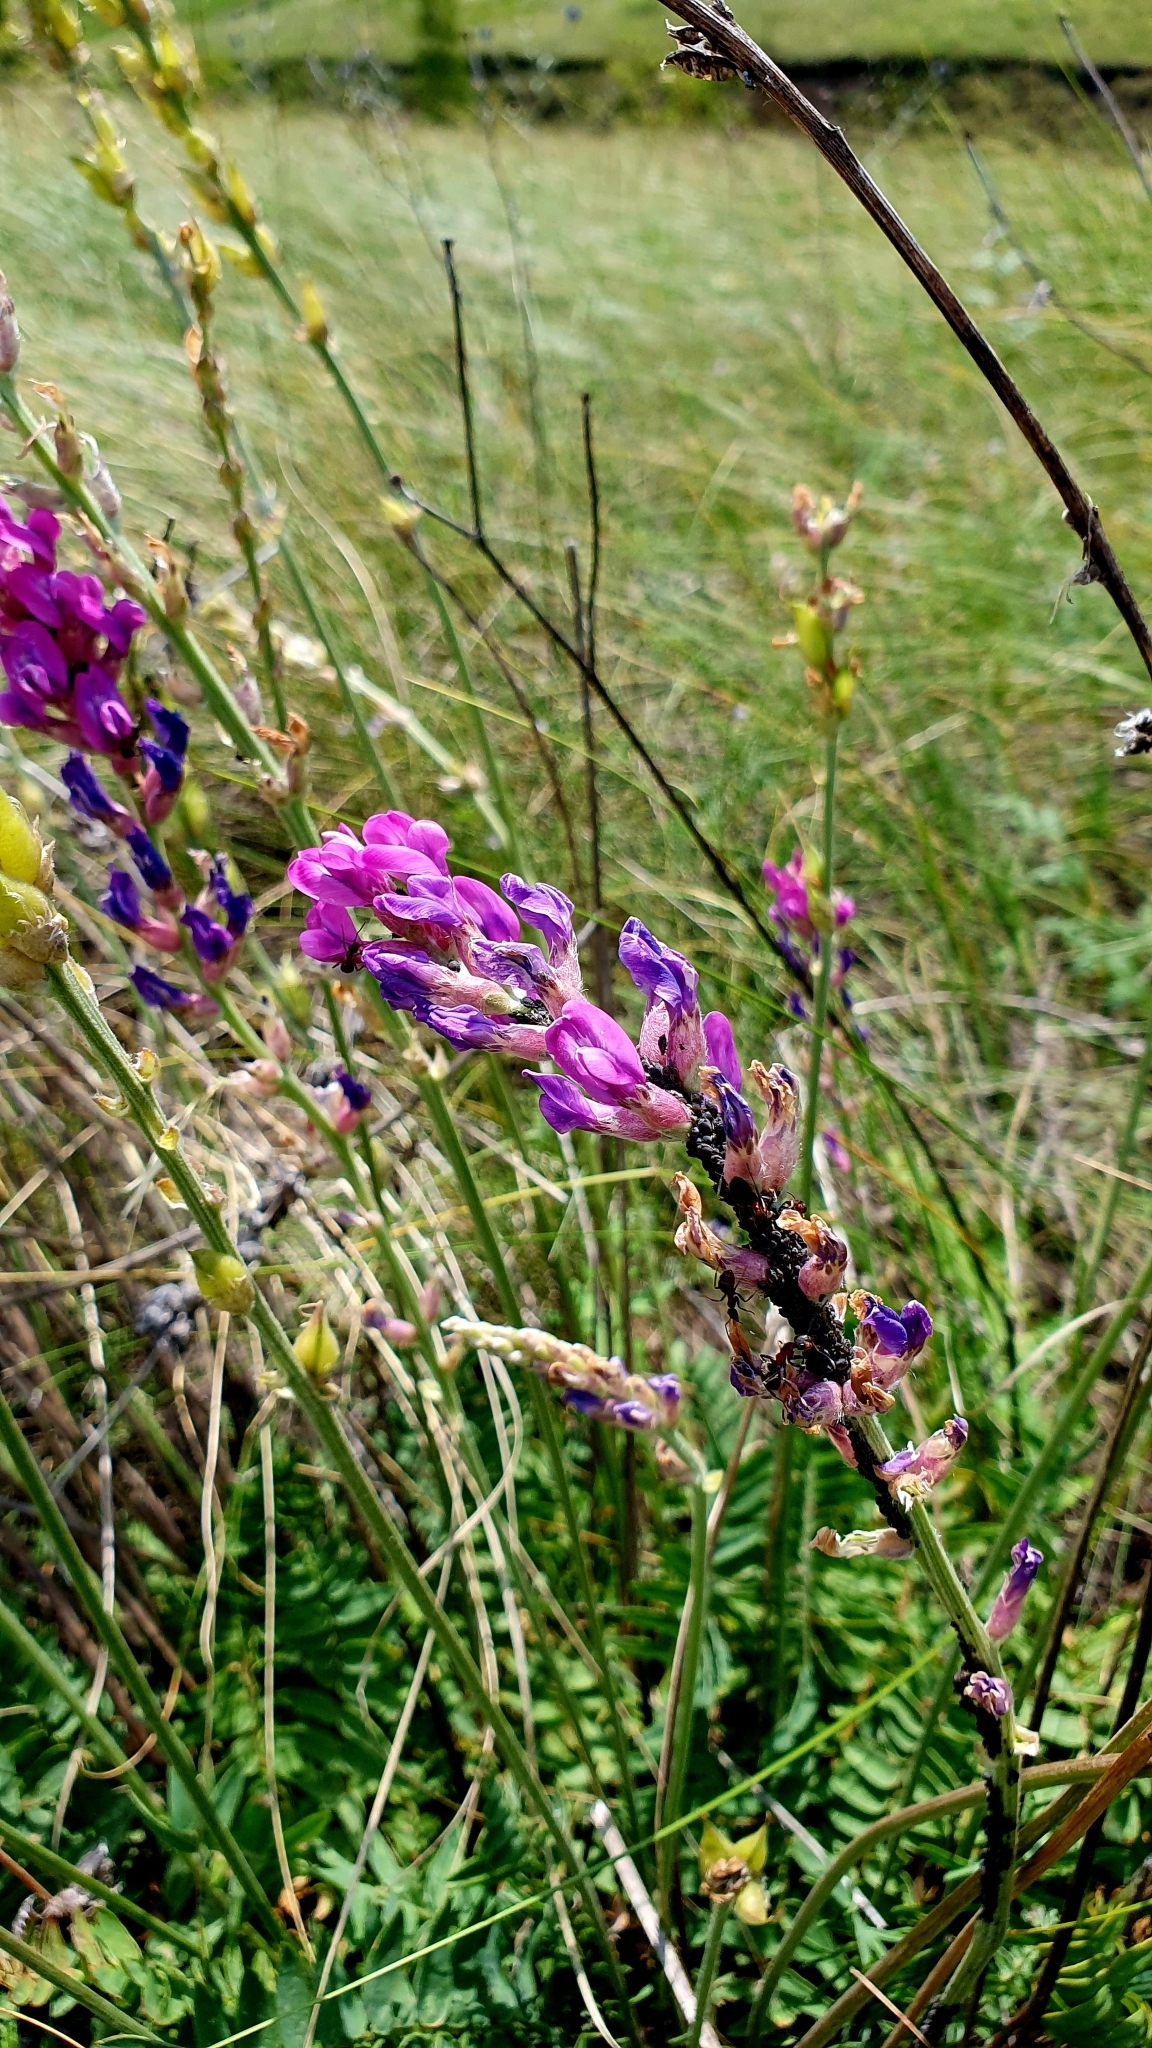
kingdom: Plantae
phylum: Tracheophyta
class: Magnoliopsida
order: Fabales
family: Fabaceae
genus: Oxytropis
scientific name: Oxytropis knjazevii
